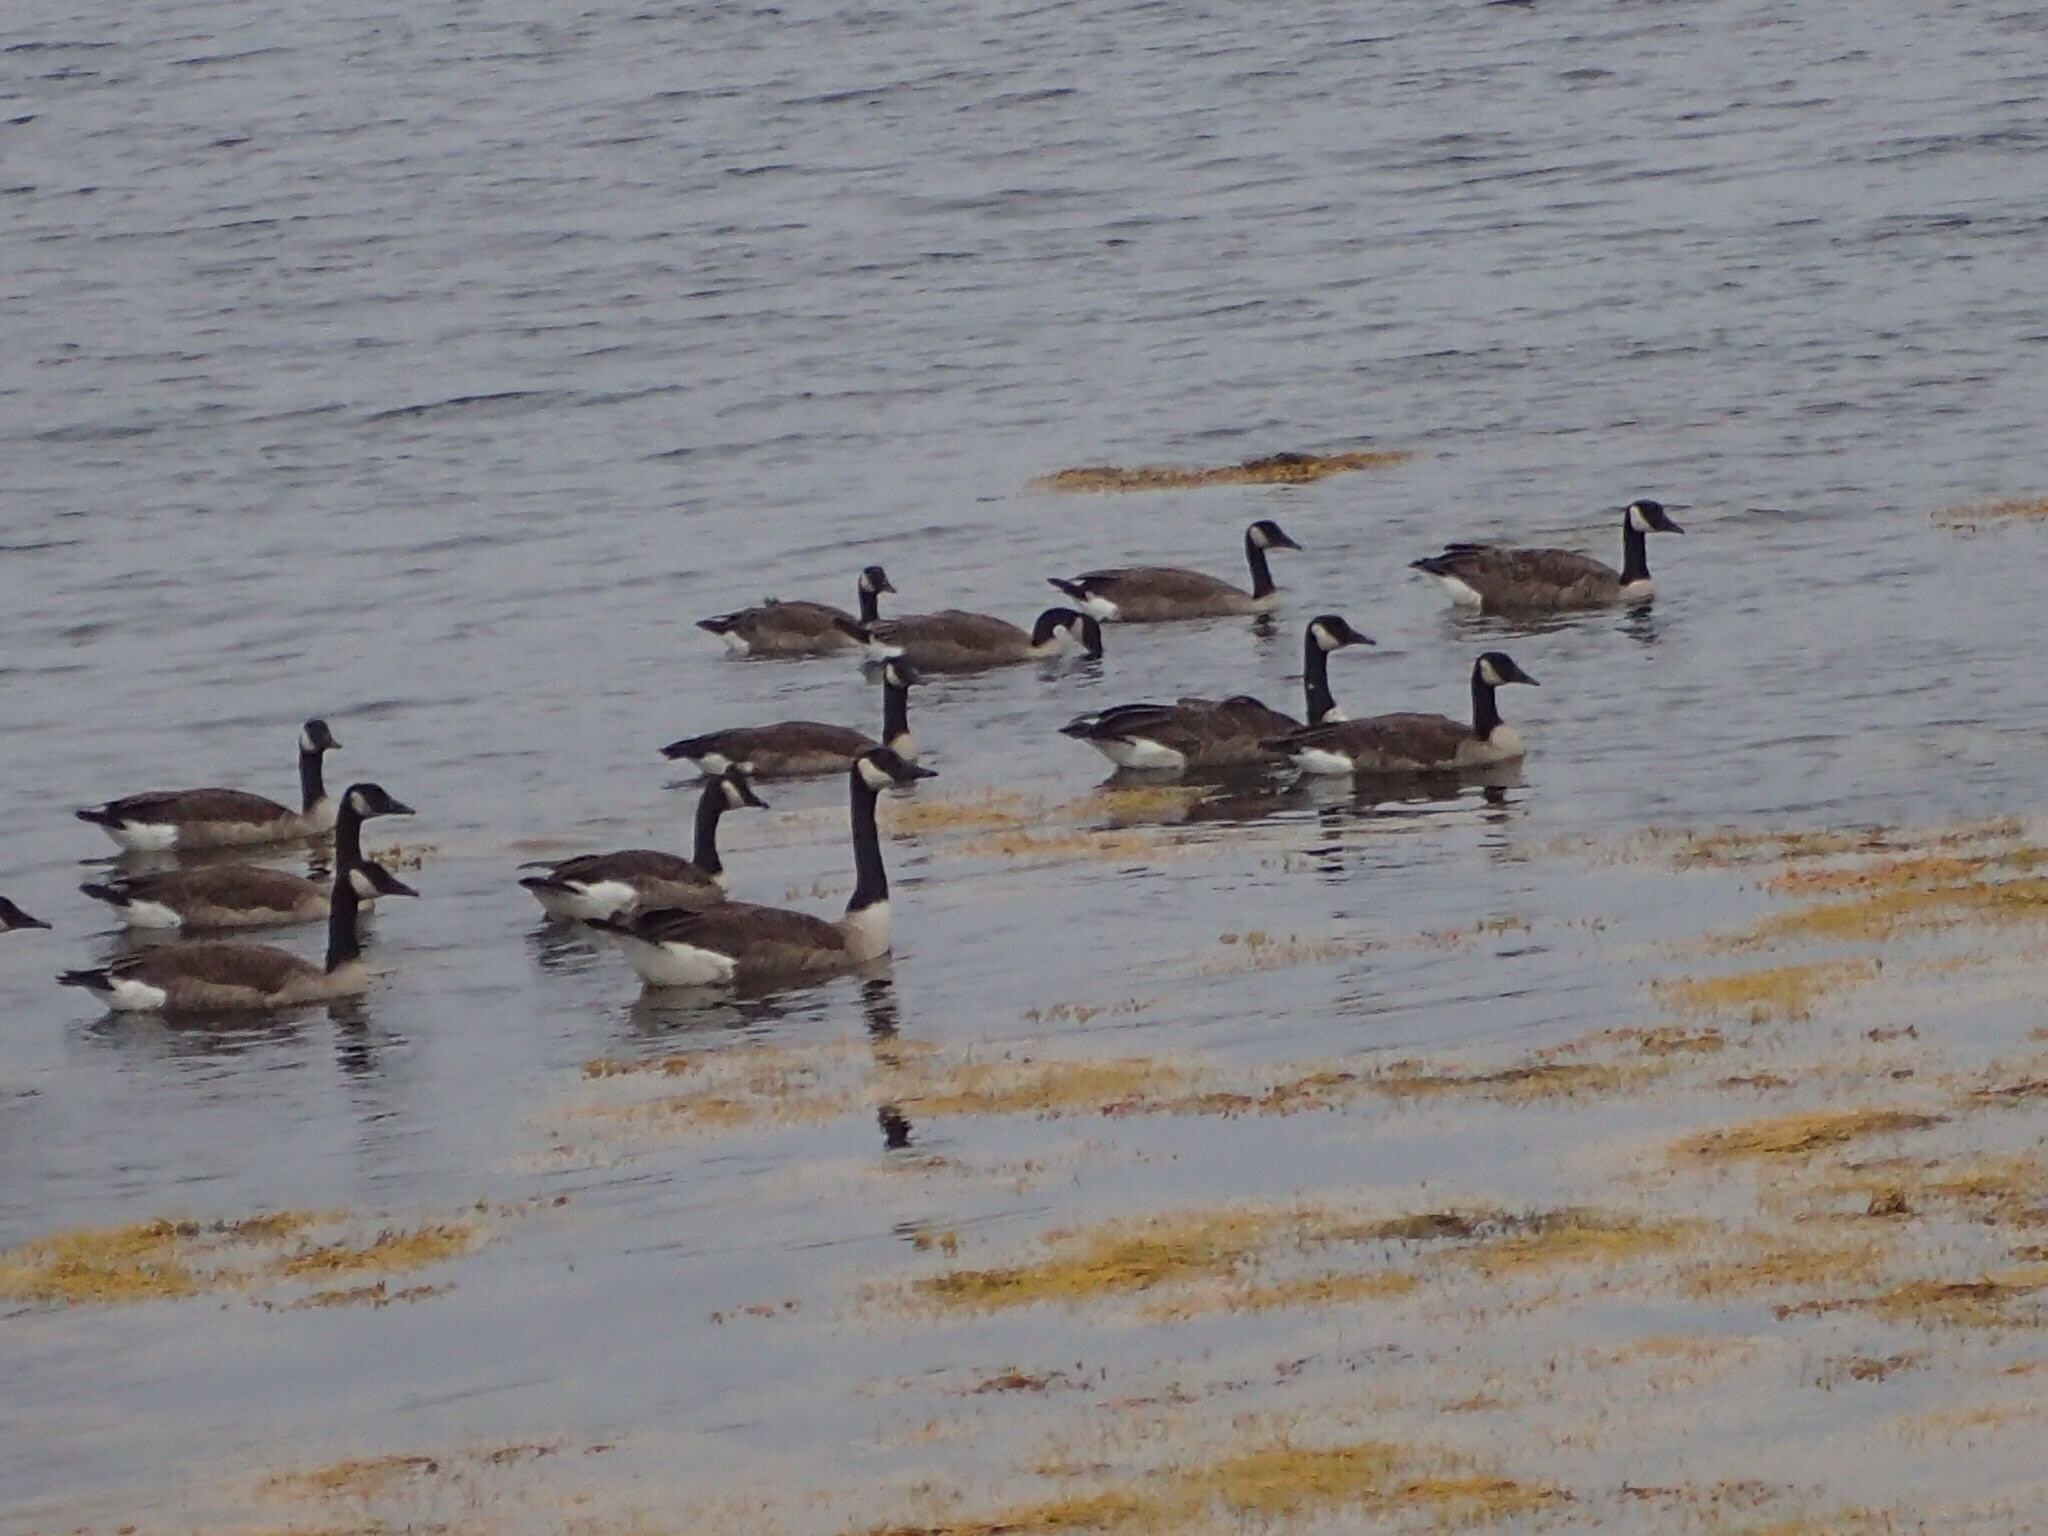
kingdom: Animalia
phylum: Chordata
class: Aves
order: Anseriformes
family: Anatidae
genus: Branta
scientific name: Branta canadensis
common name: Canada goose
